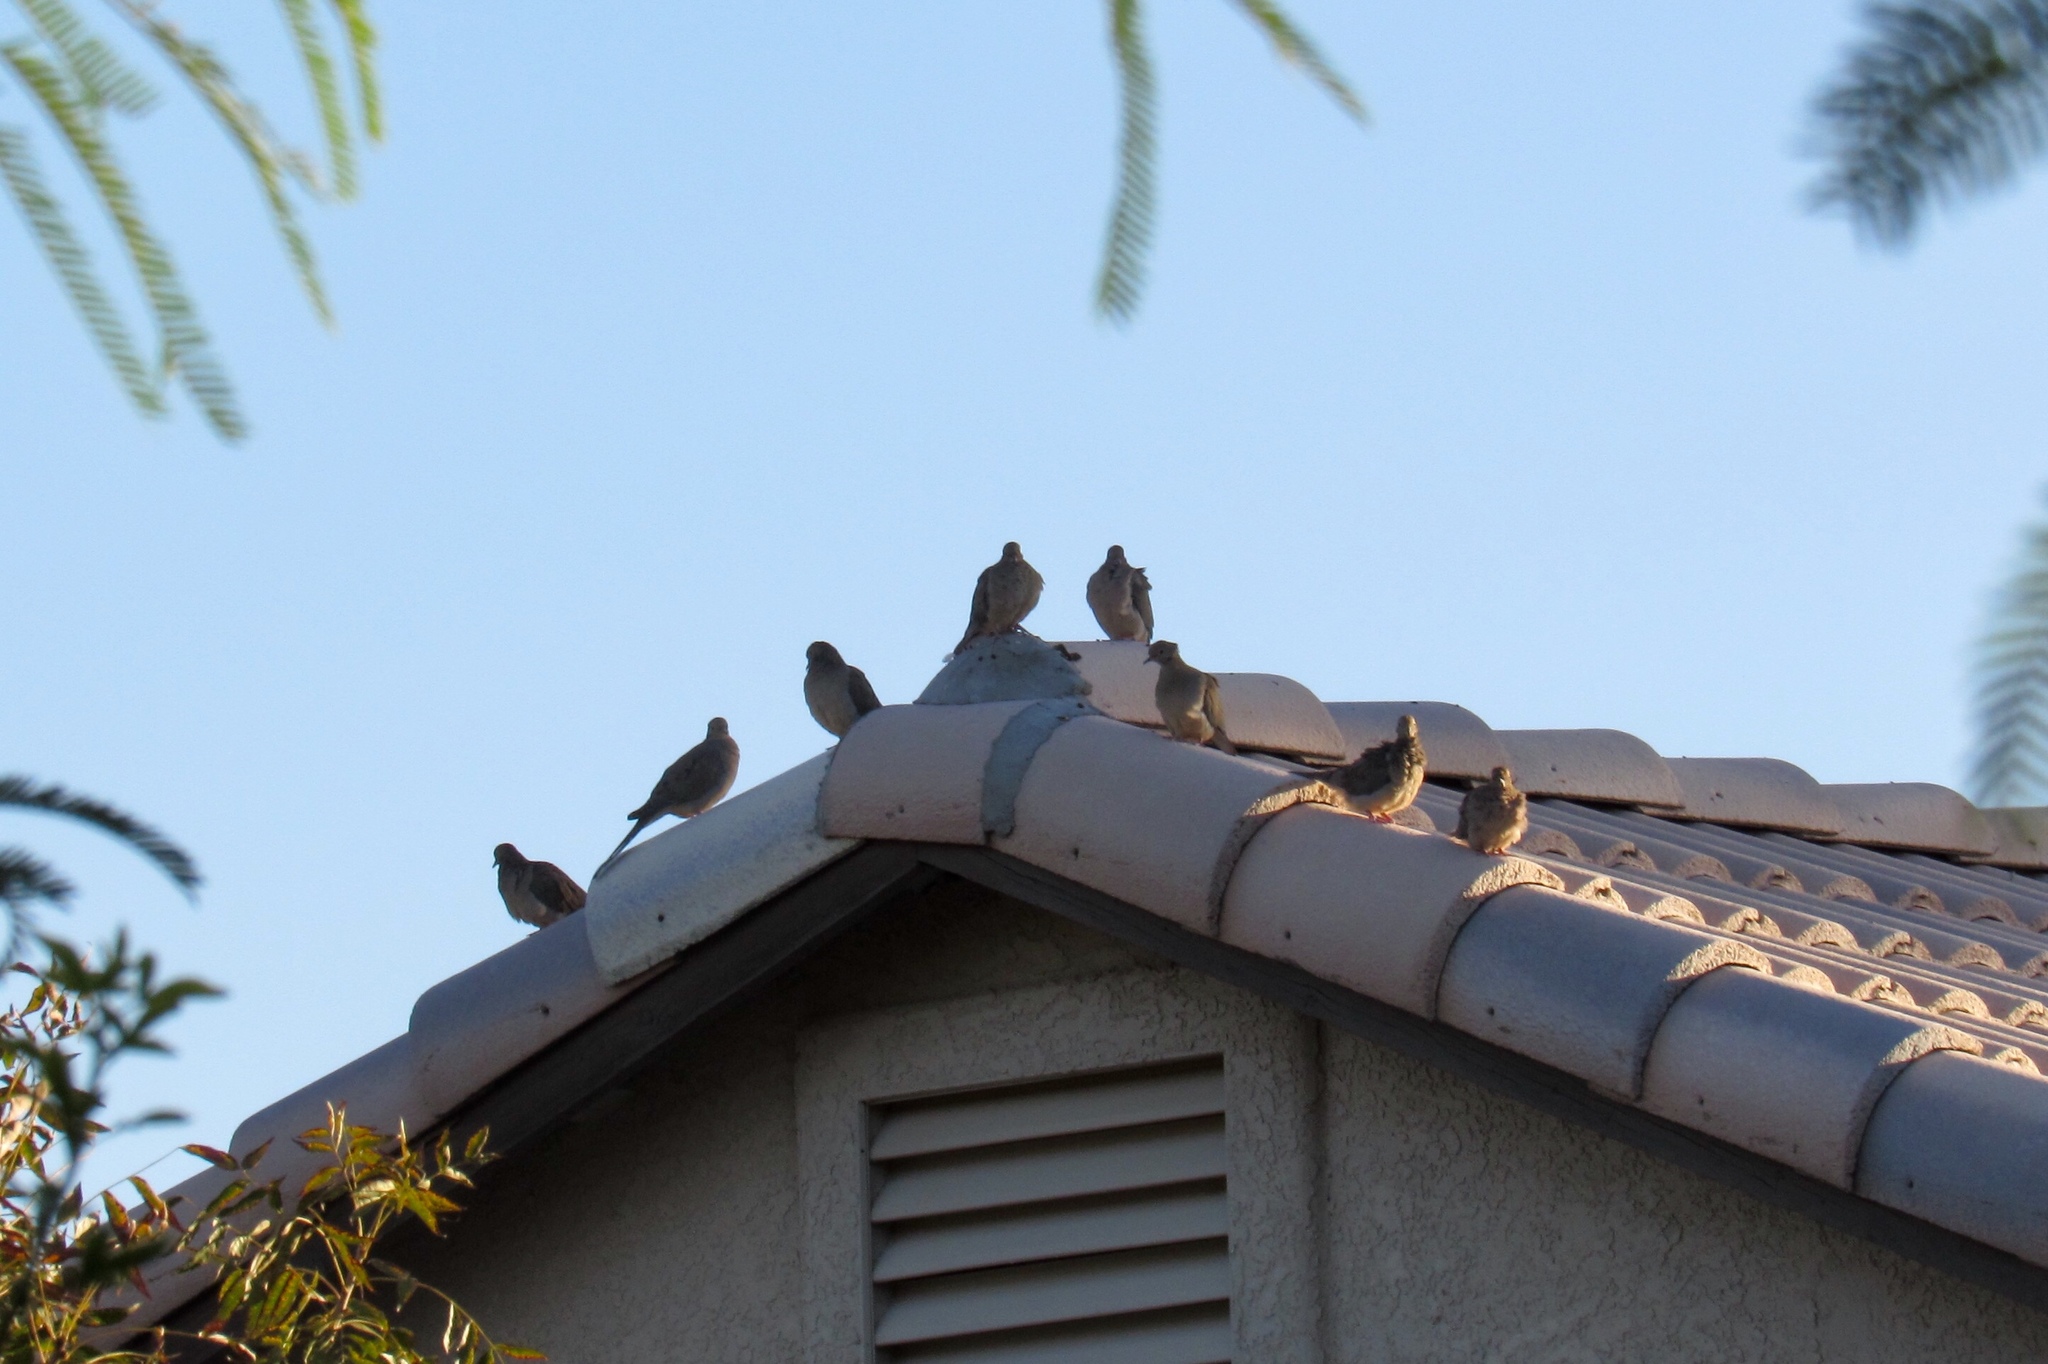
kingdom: Animalia
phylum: Chordata
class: Aves
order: Columbiformes
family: Columbidae
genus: Zenaida
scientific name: Zenaida macroura
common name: Mourning dove
